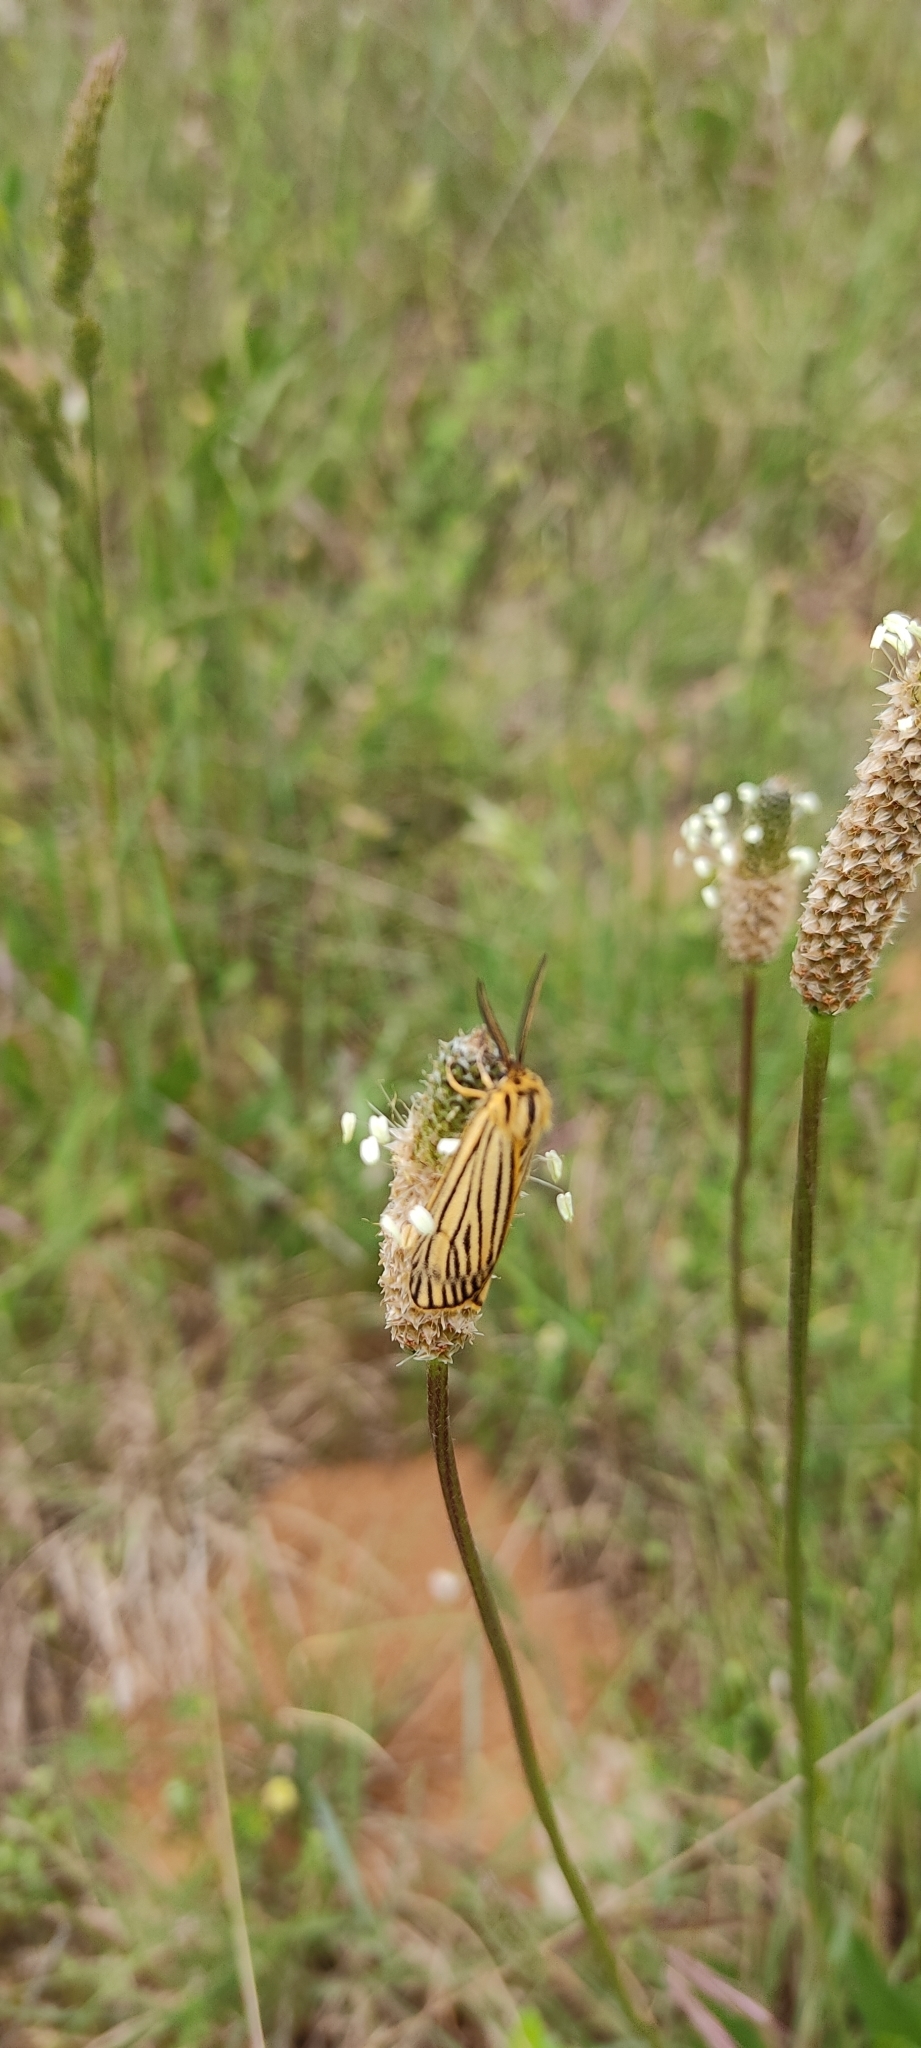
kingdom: Animalia
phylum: Arthropoda
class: Insecta
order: Lepidoptera
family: Erebidae
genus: Coscinia
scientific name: Coscinia Spiris striata
